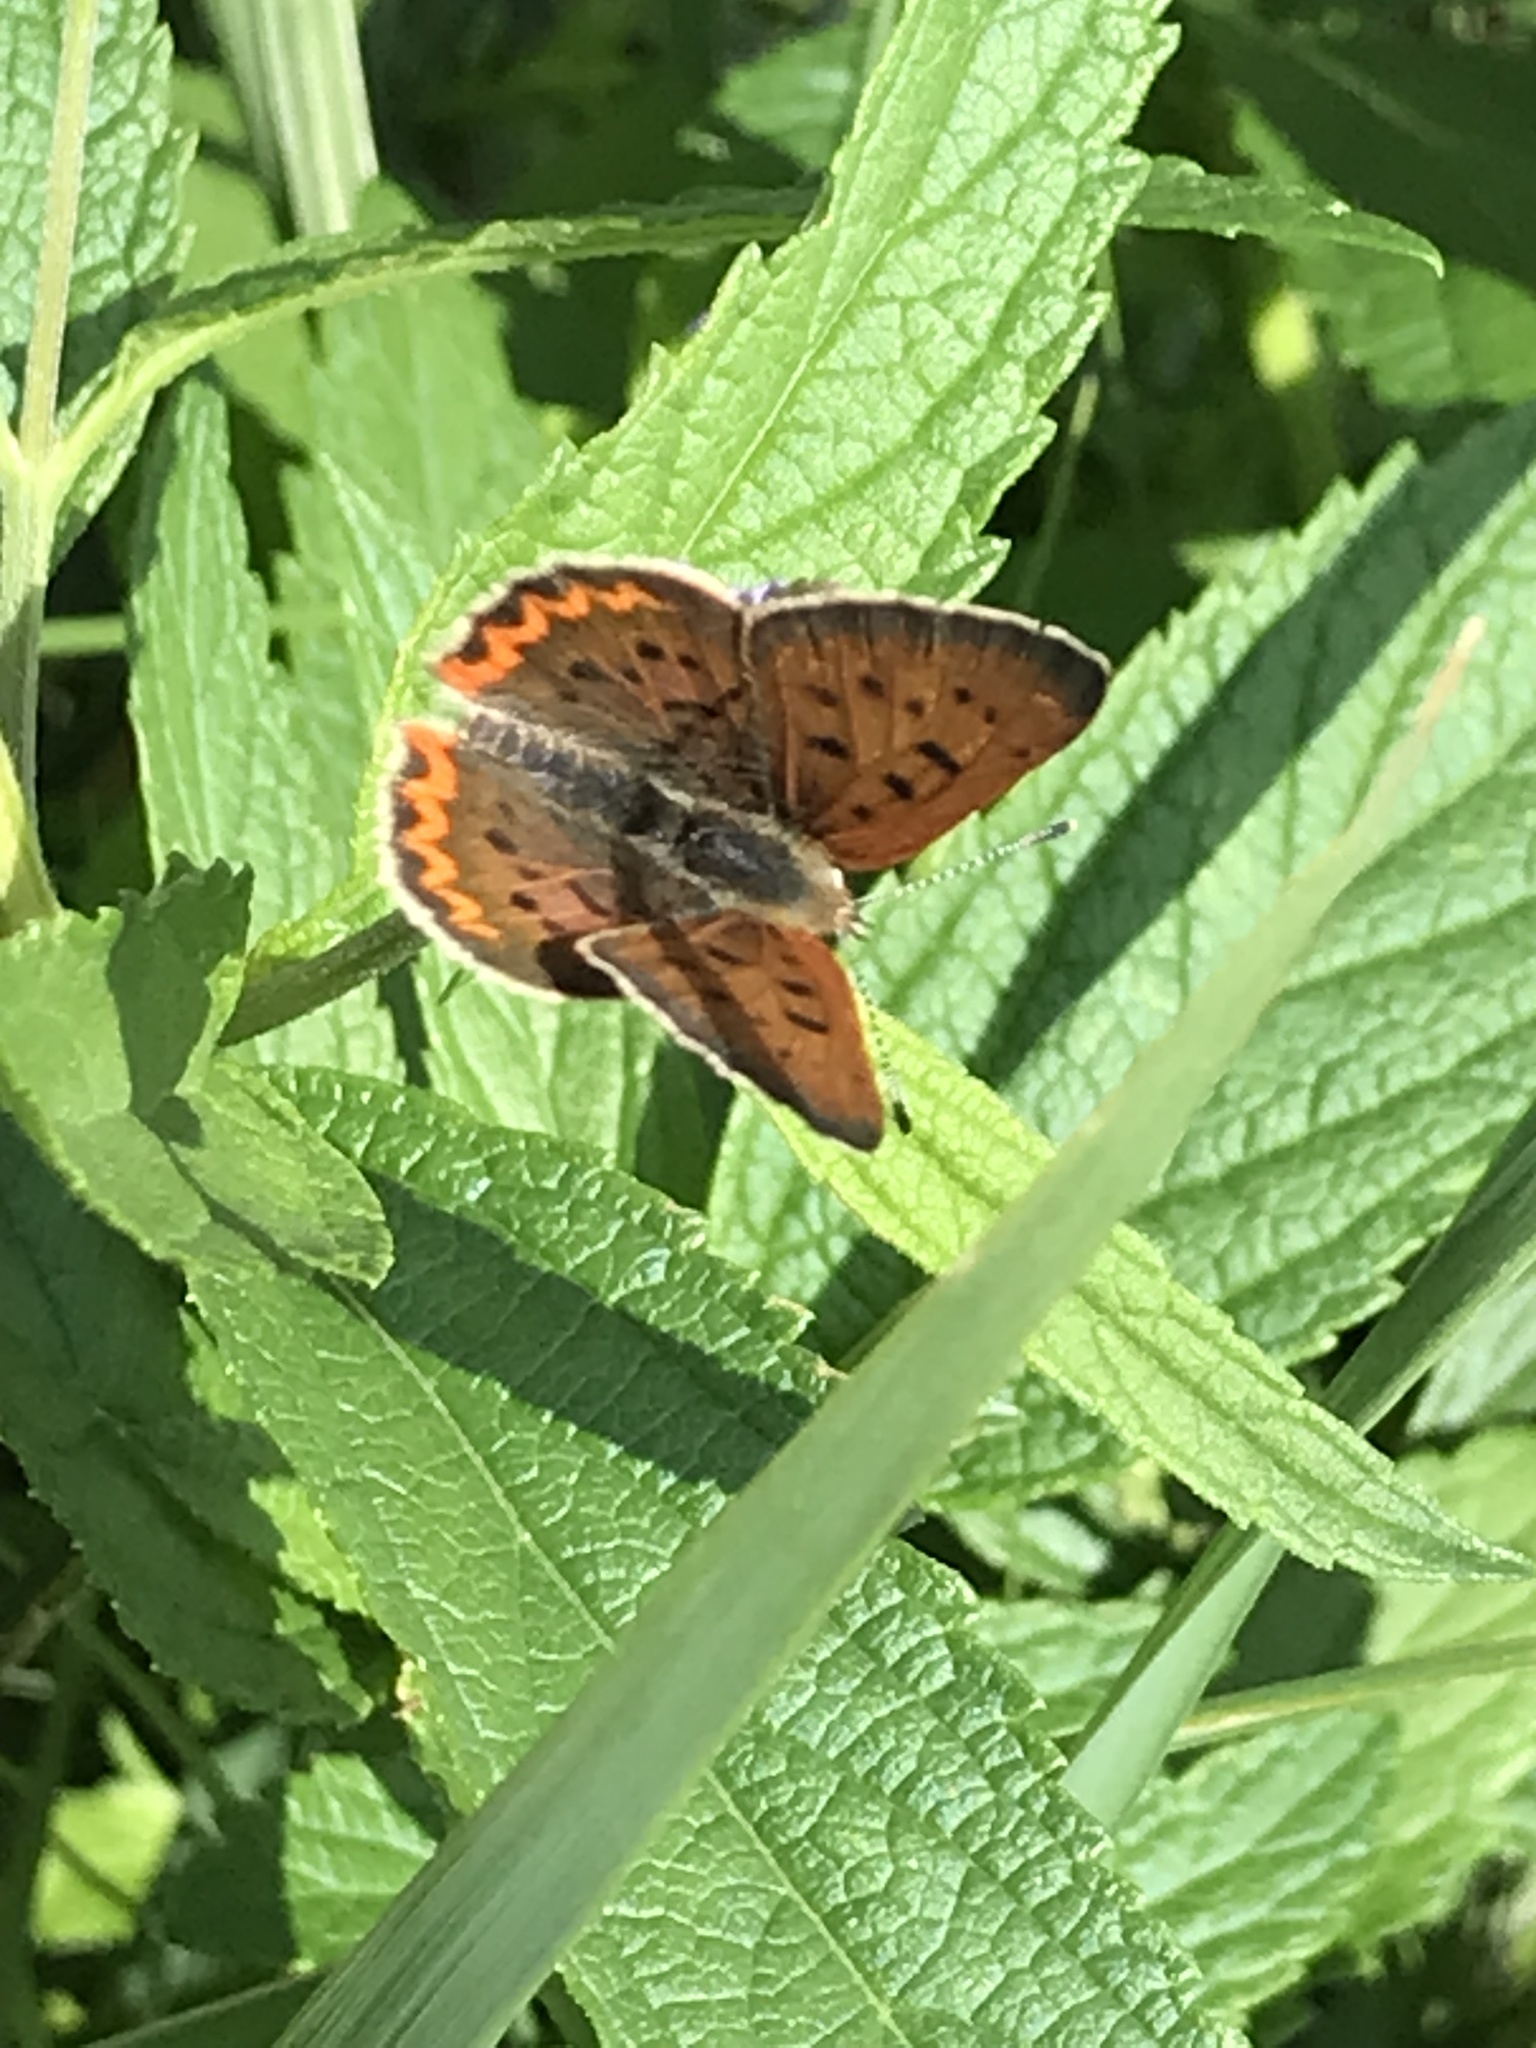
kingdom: Animalia
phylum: Arthropoda
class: Insecta
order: Lepidoptera
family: Lycaenidae
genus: Tharsalea
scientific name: Tharsalea helloides
